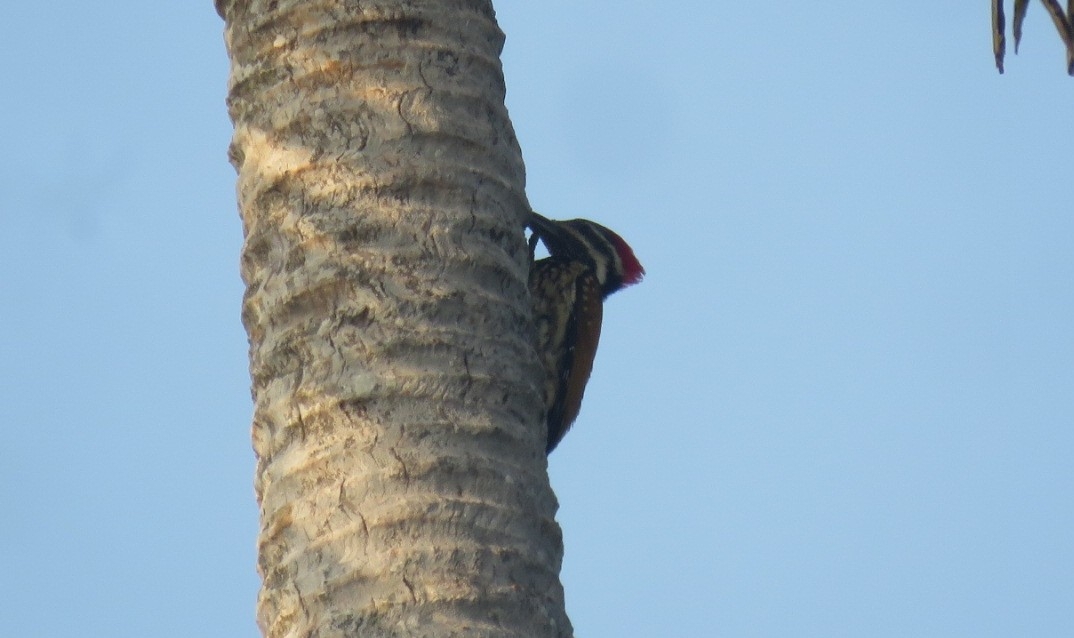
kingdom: Animalia
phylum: Chordata
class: Aves
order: Piciformes
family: Picidae
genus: Dinopium
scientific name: Dinopium benghalense
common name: Black-rumped flameback
